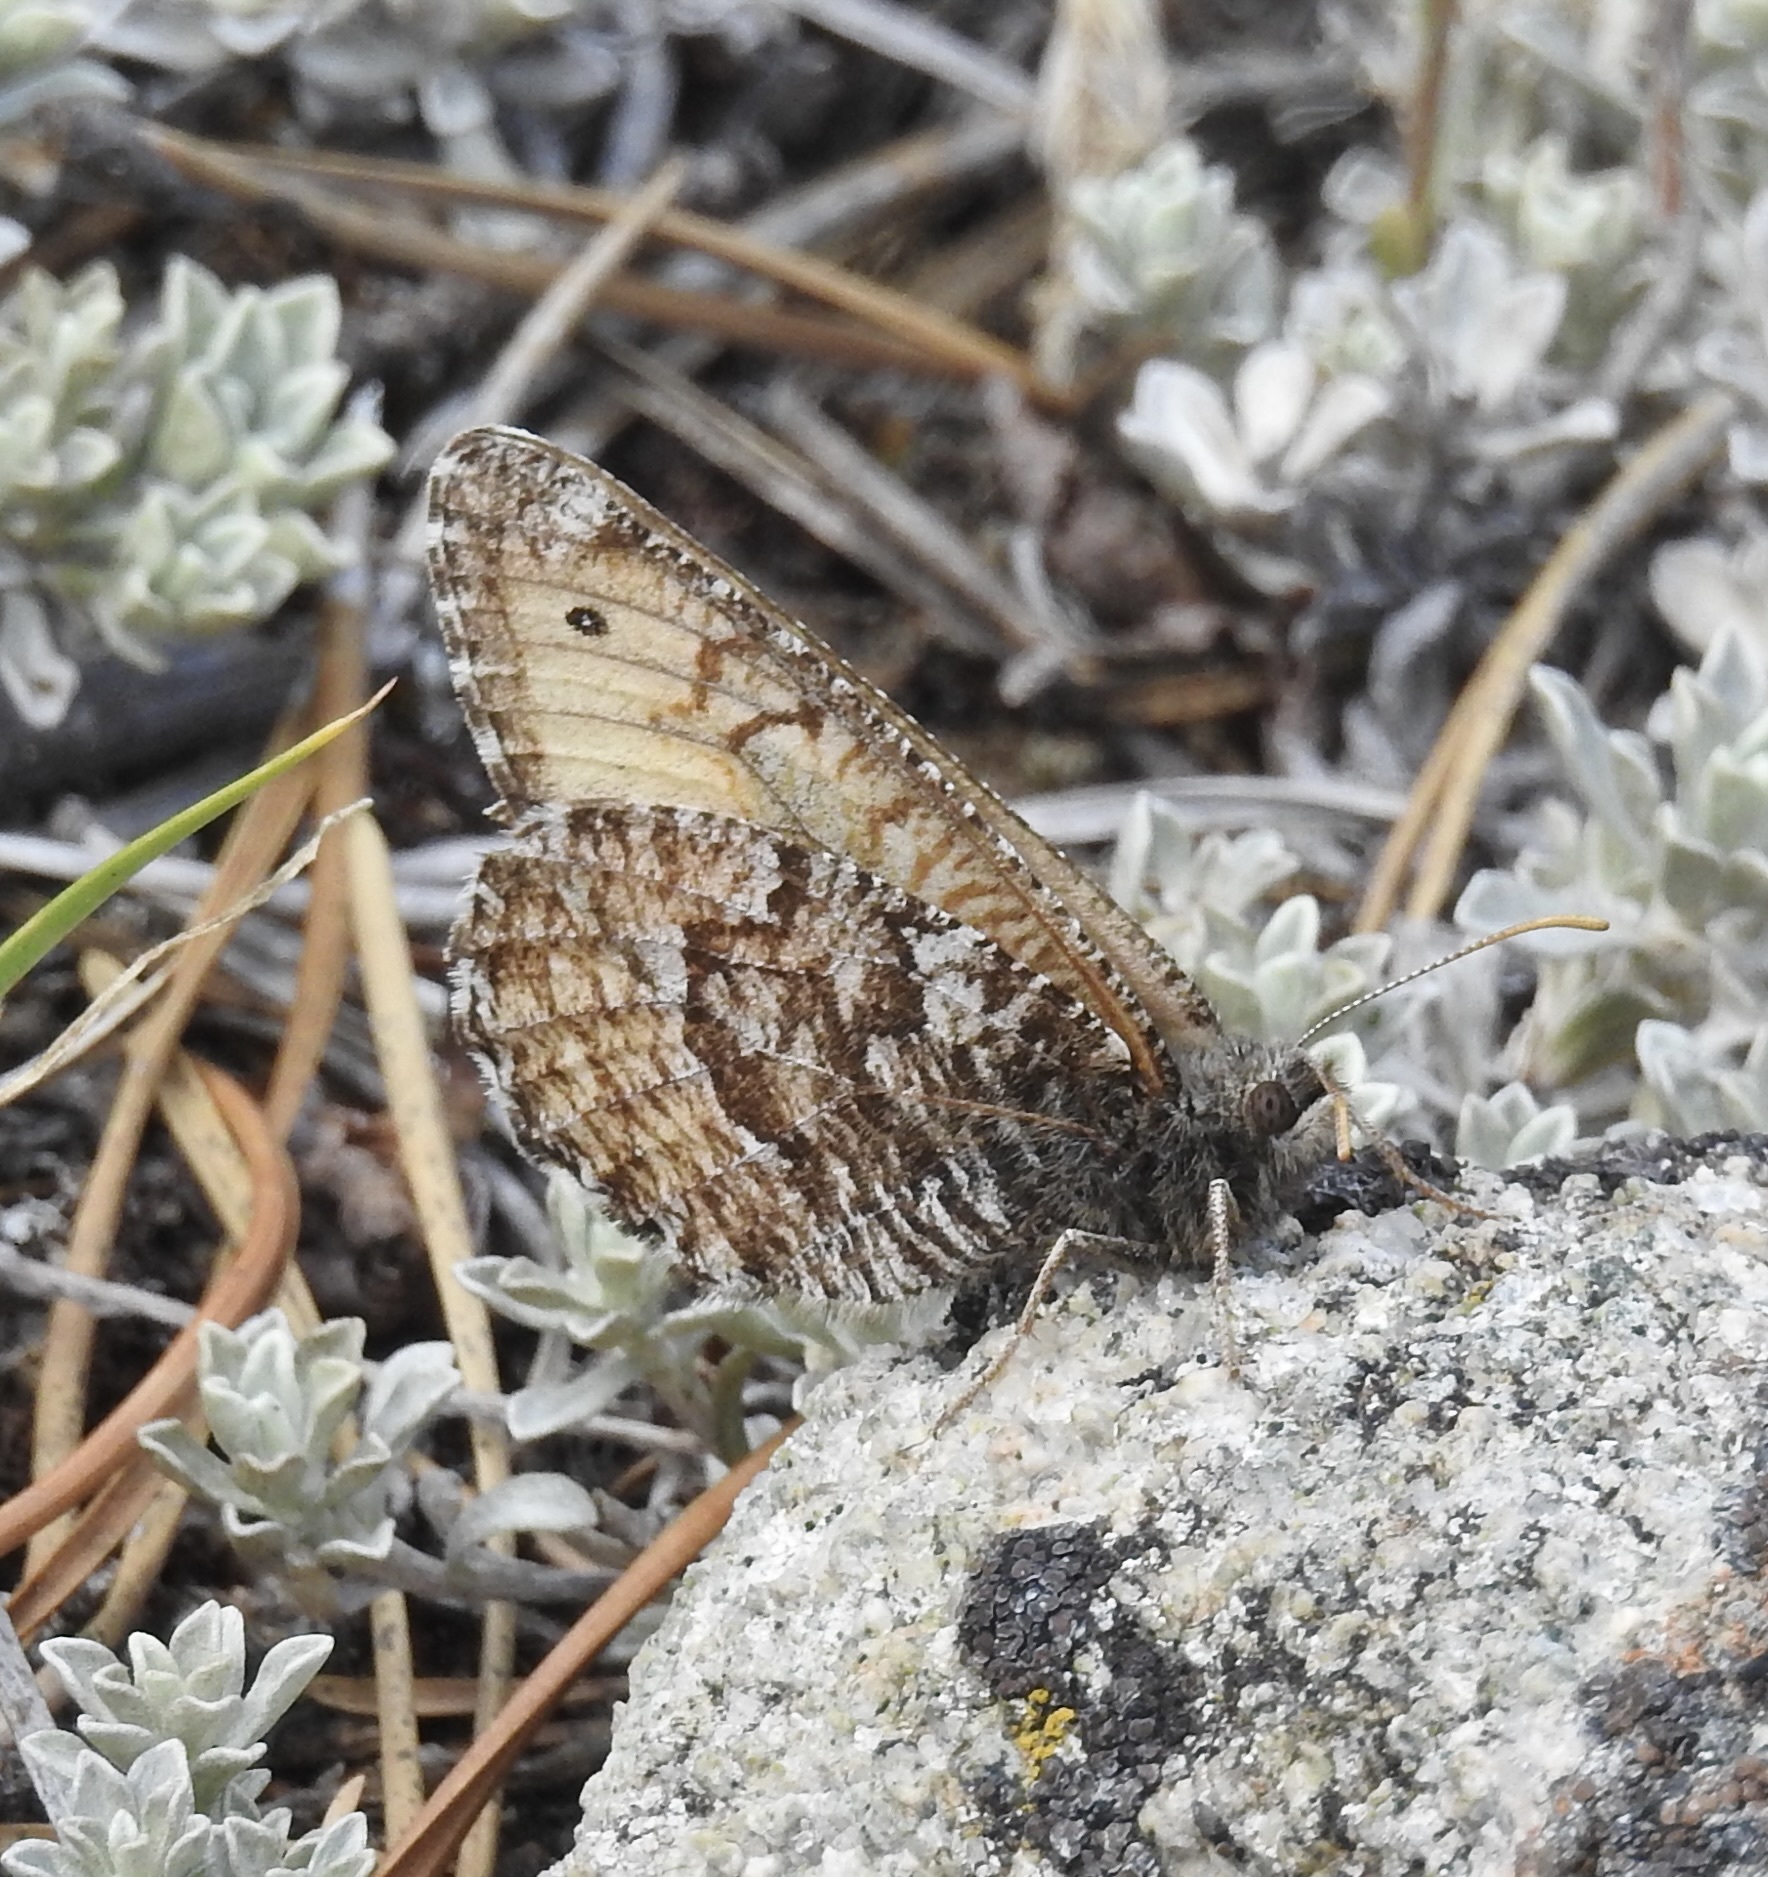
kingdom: Animalia
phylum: Arthropoda
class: Insecta
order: Lepidoptera
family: Nymphalidae
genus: Oeneis
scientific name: Oeneis chryxus
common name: Chryxus arctic
